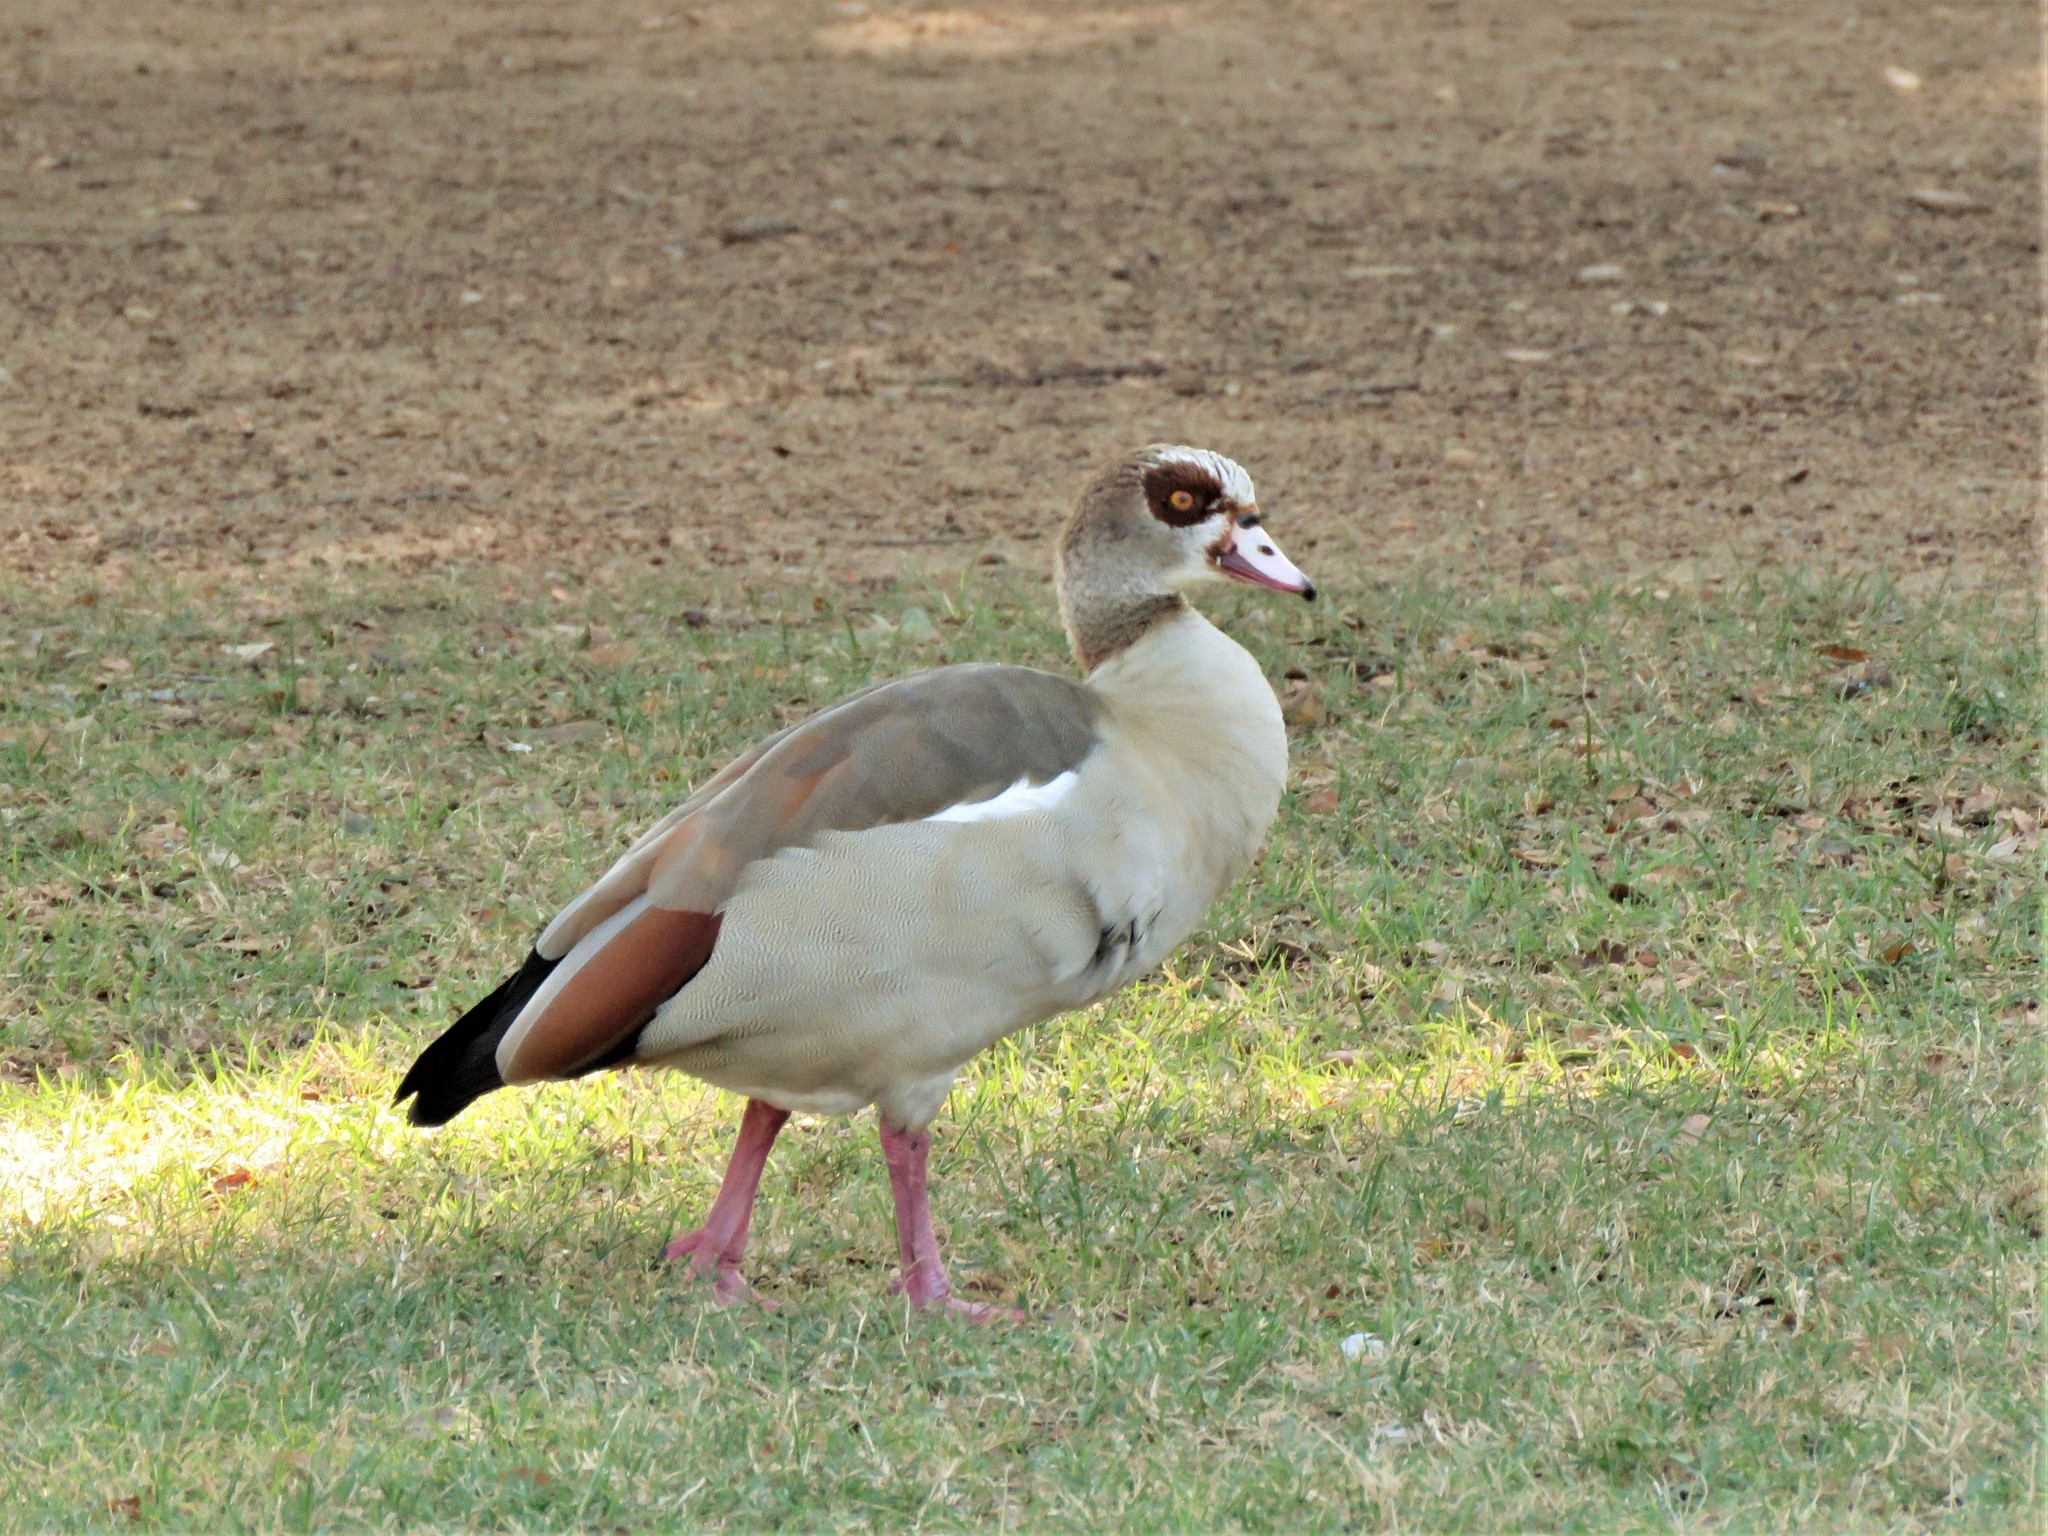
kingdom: Animalia
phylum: Chordata
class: Aves
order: Anseriformes
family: Anatidae
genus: Alopochen
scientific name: Alopochen aegyptiaca
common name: Egyptian goose
